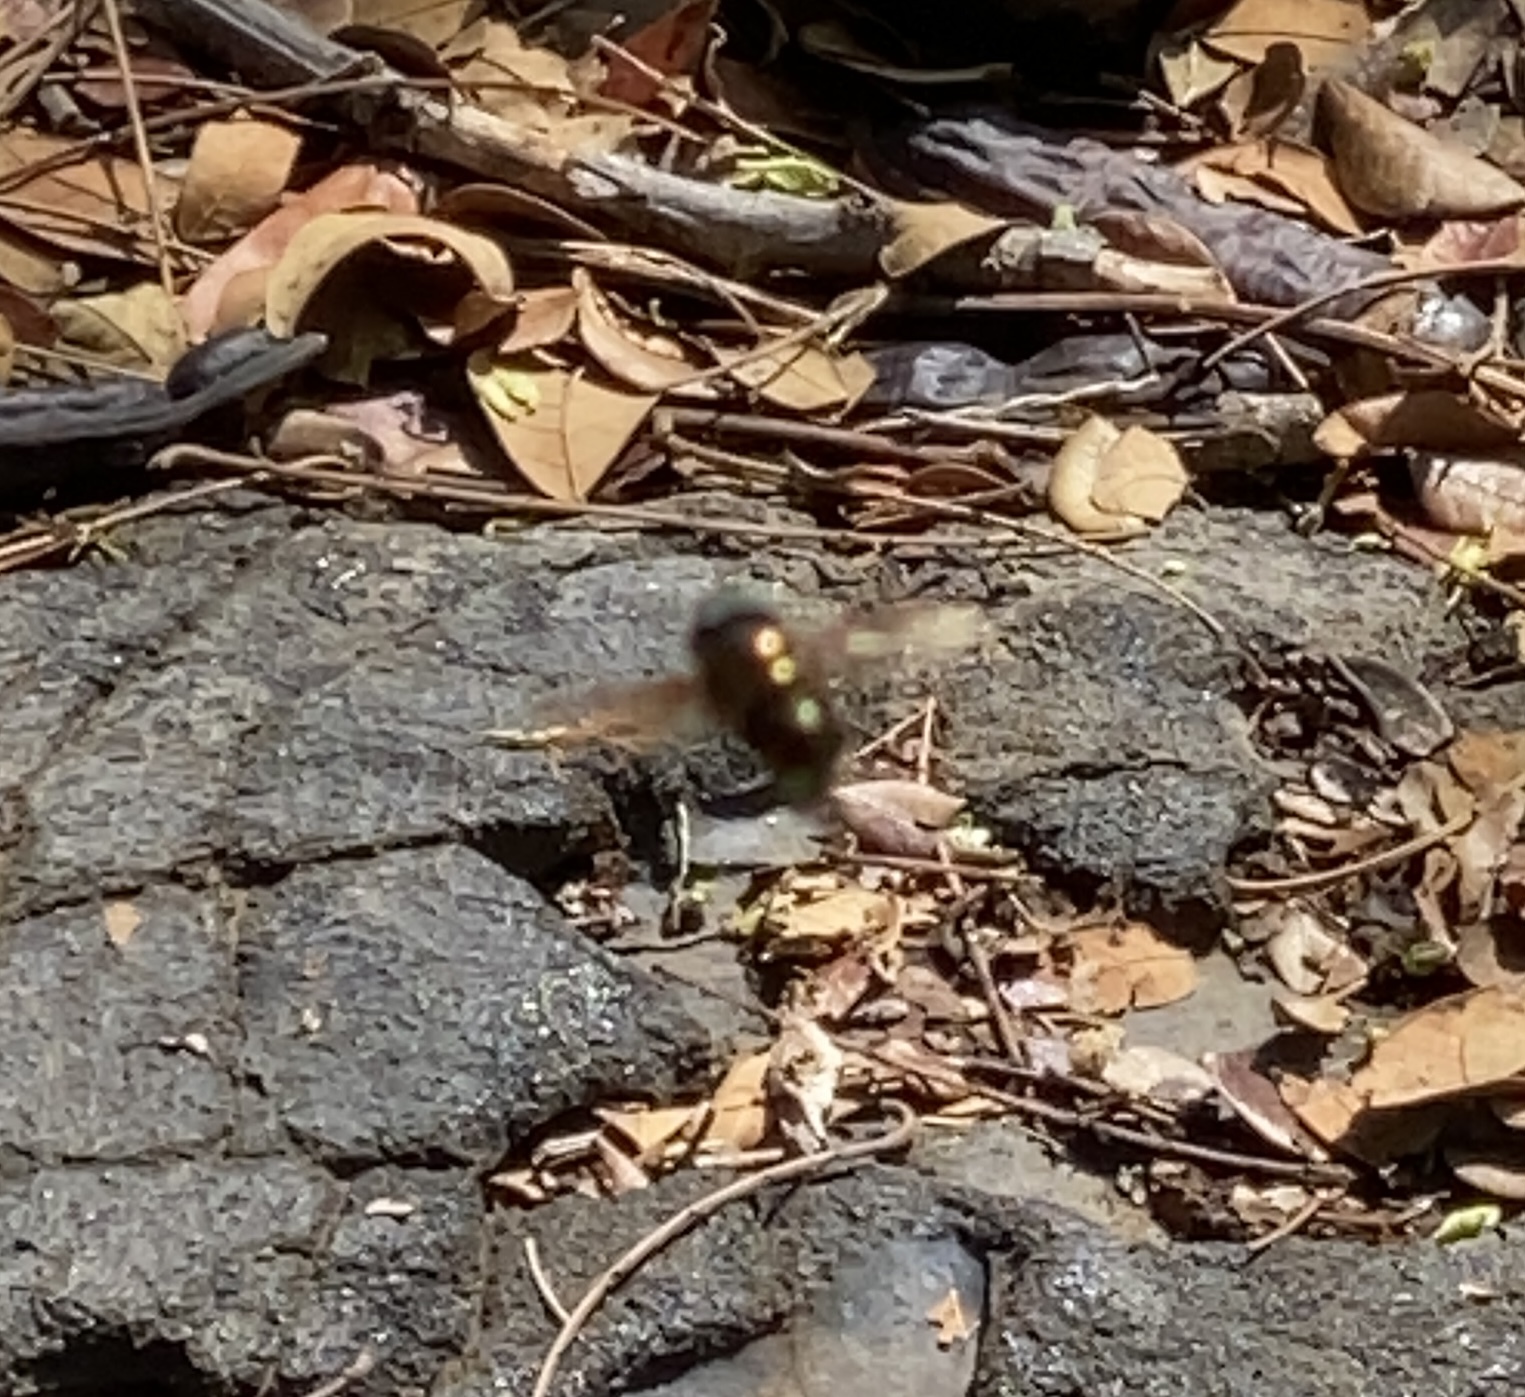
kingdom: Animalia
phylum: Arthropoda
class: Insecta
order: Diptera
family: Syrphidae
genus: Ornidia
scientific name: Ornidia obesa
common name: Syrphid fly
